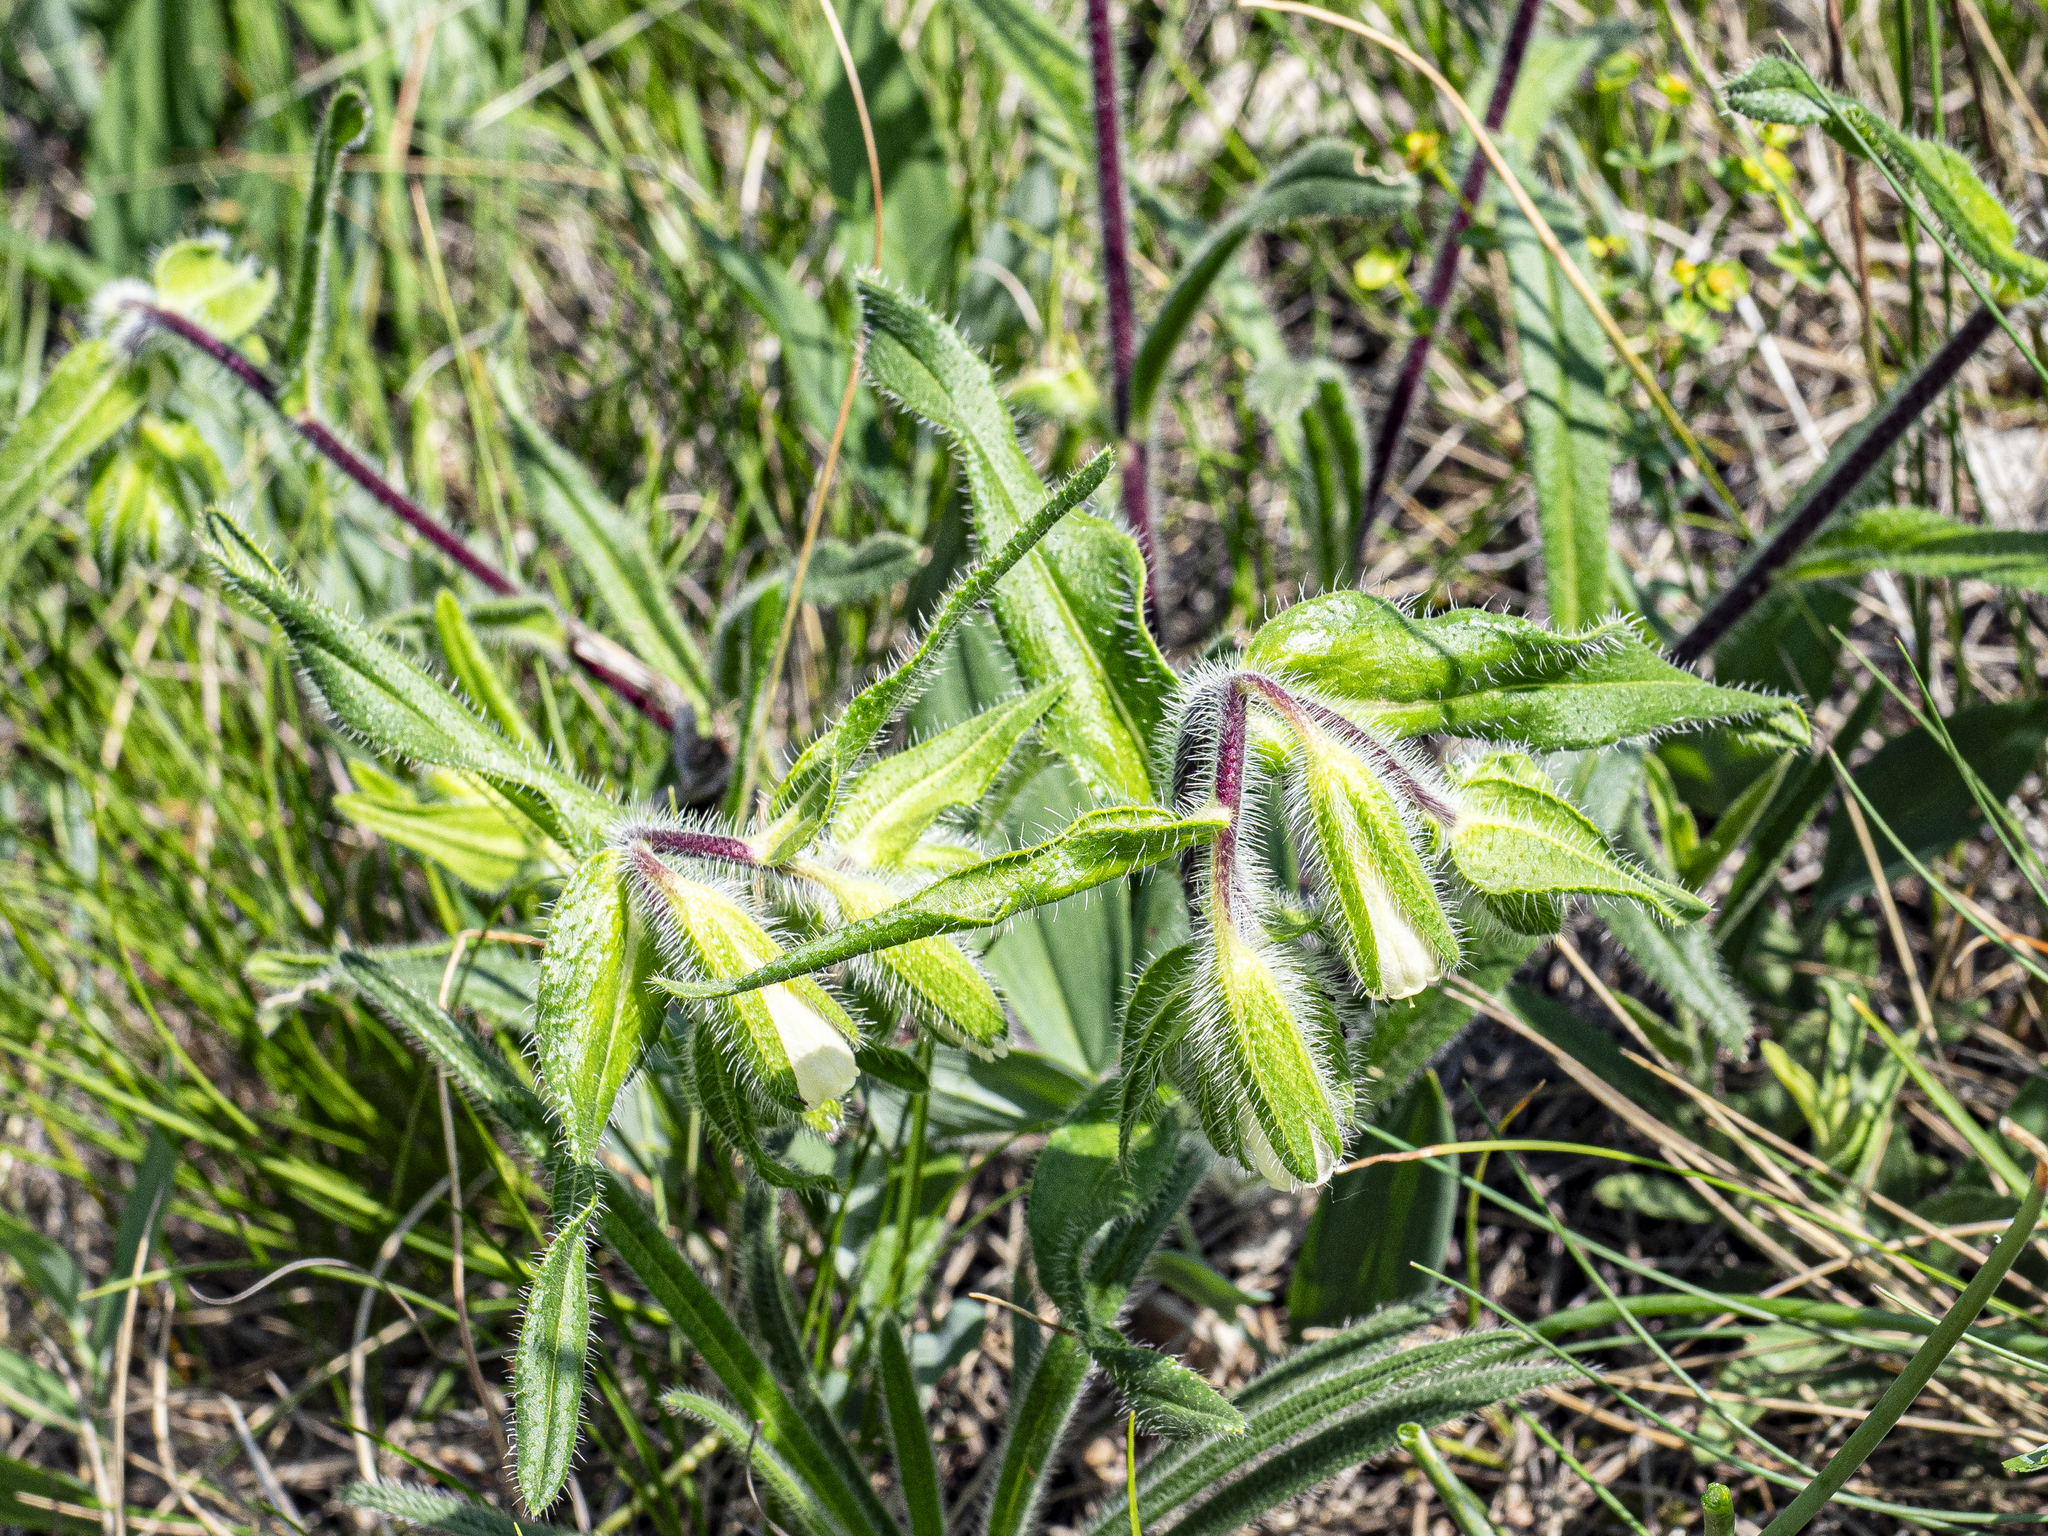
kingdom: Plantae
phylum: Tracheophyta
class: Magnoliopsida
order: Boraginales
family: Boraginaceae
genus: Onosma
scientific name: Onosma visianii
